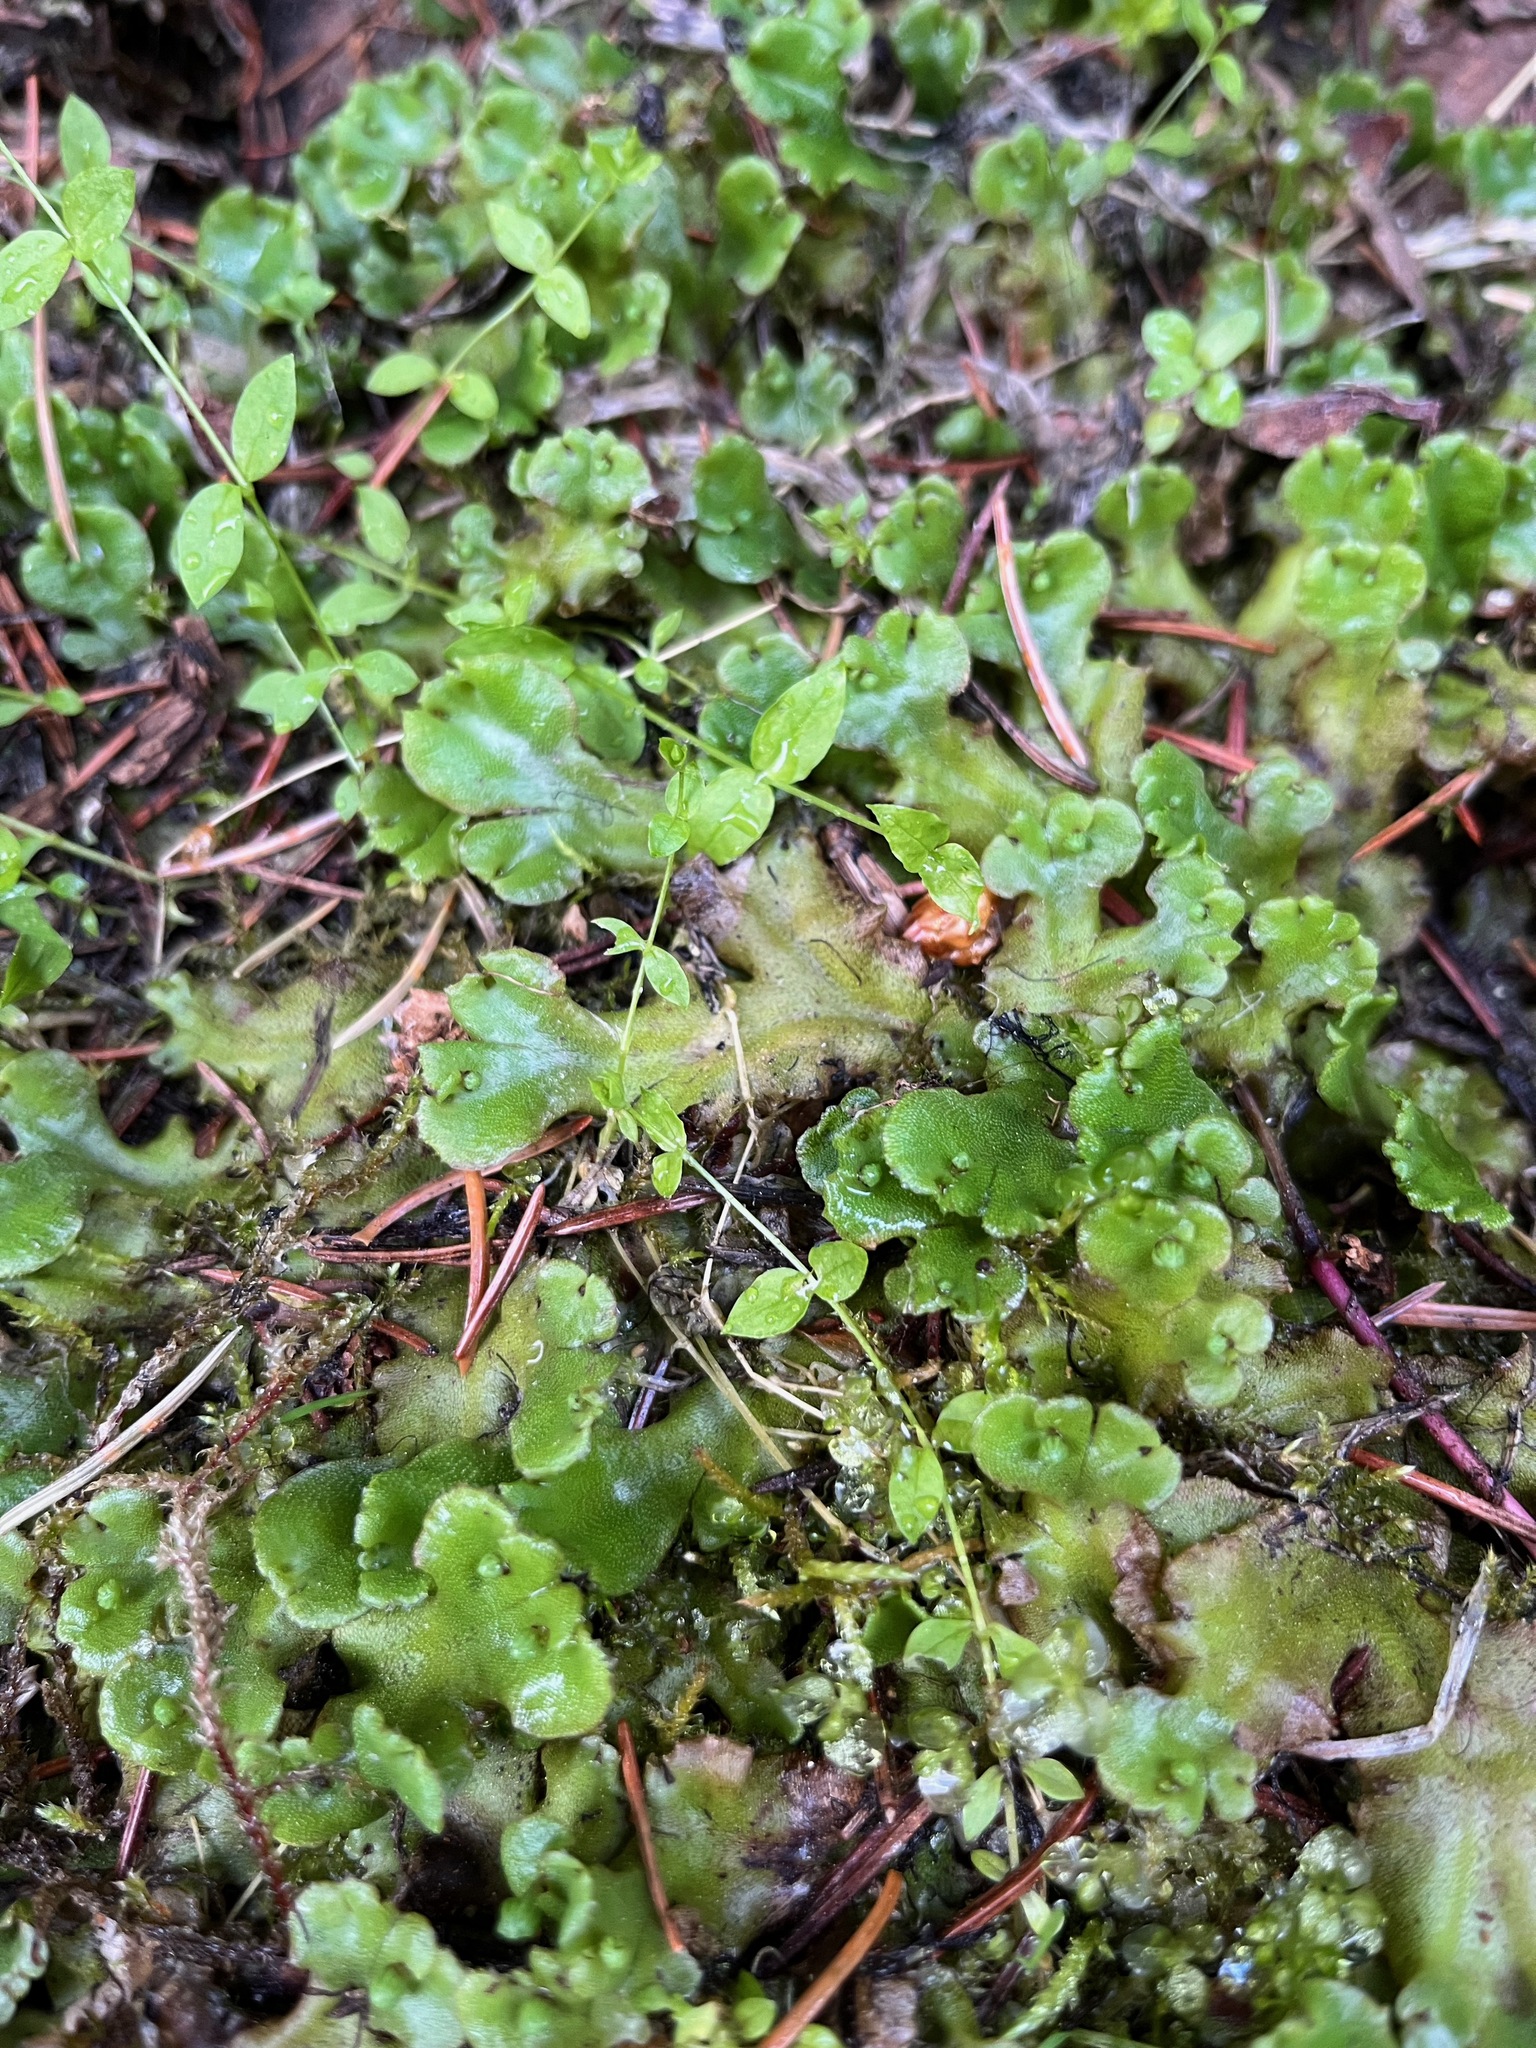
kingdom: Plantae
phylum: Marchantiophyta
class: Marchantiopsida
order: Marchantiales
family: Marchantiaceae
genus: Marchantia
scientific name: Marchantia polymorpha
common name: Common liverwort
